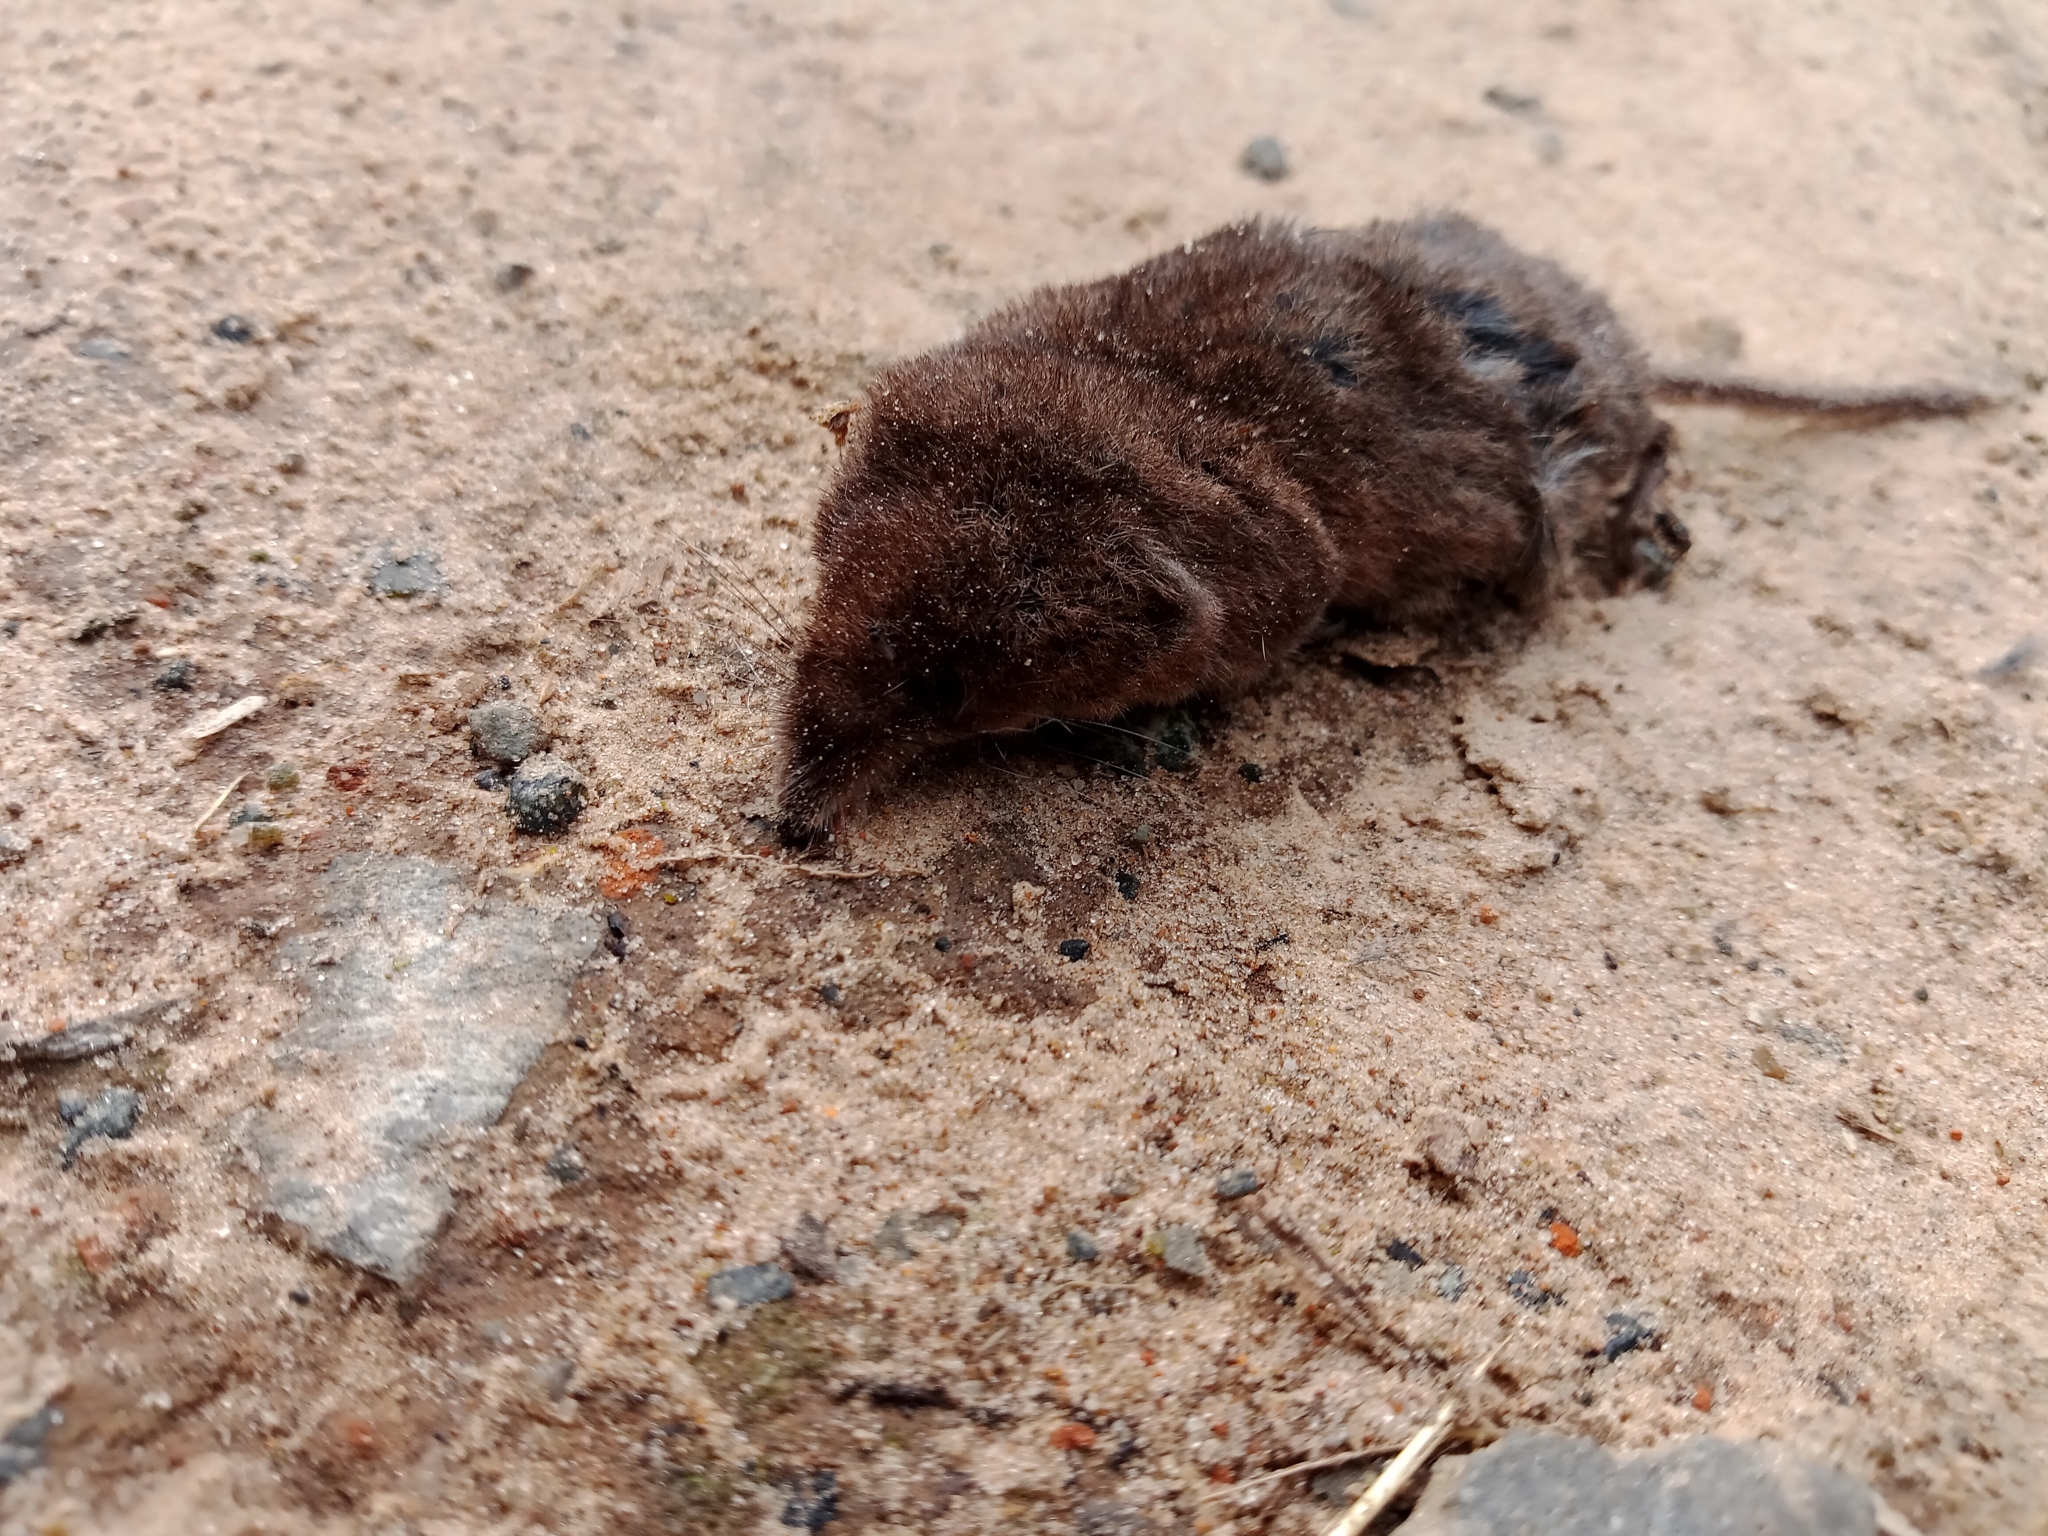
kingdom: Animalia
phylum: Chordata
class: Mammalia
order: Soricomorpha
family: Soricidae
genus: Sorex
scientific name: Sorex araneus
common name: Common shrew
